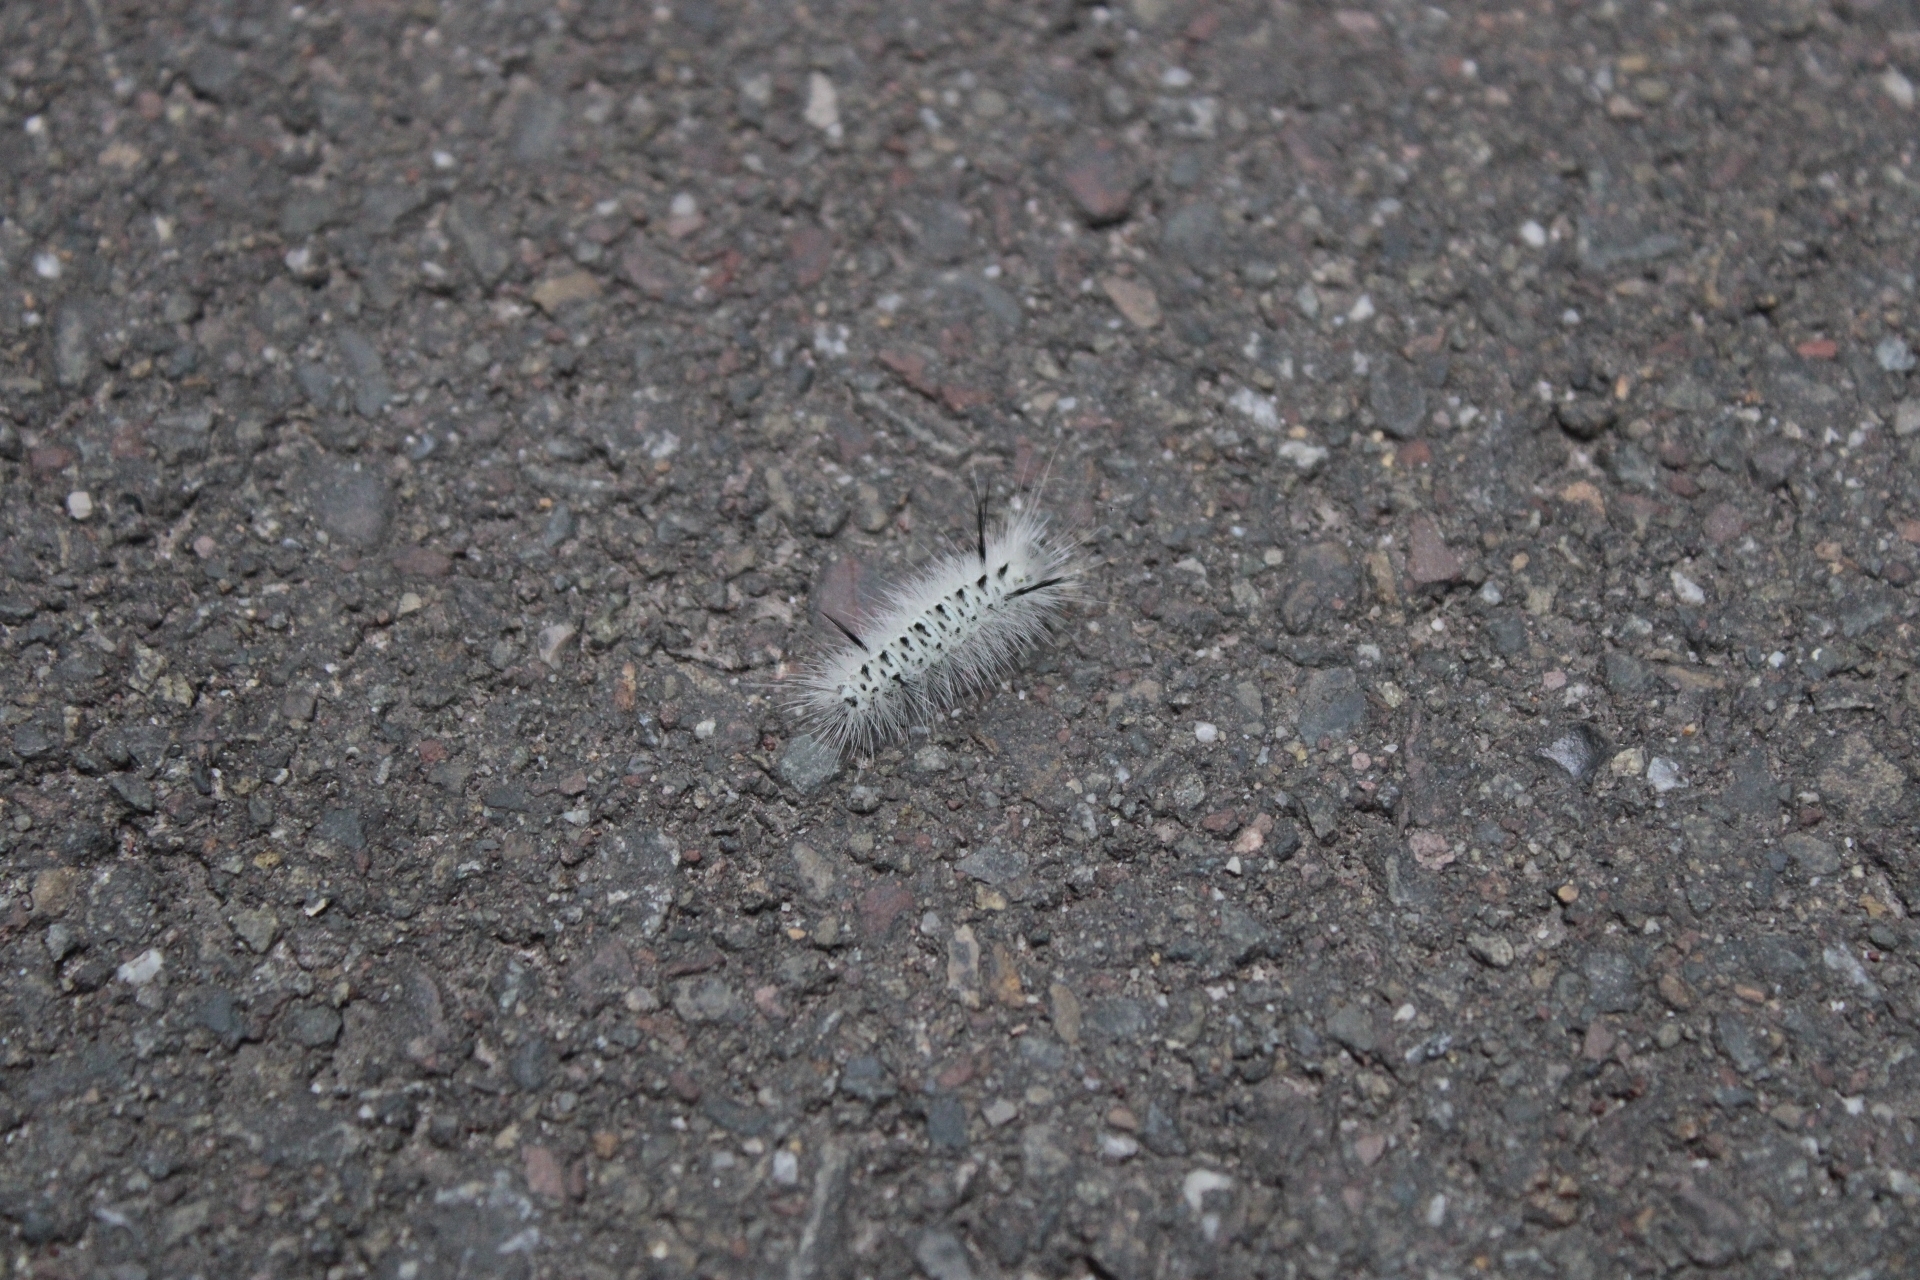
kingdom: Animalia
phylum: Arthropoda
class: Insecta
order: Lepidoptera
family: Erebidae
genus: Lophocampa
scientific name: Lophocampa caryae
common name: Hickory tussock moth
